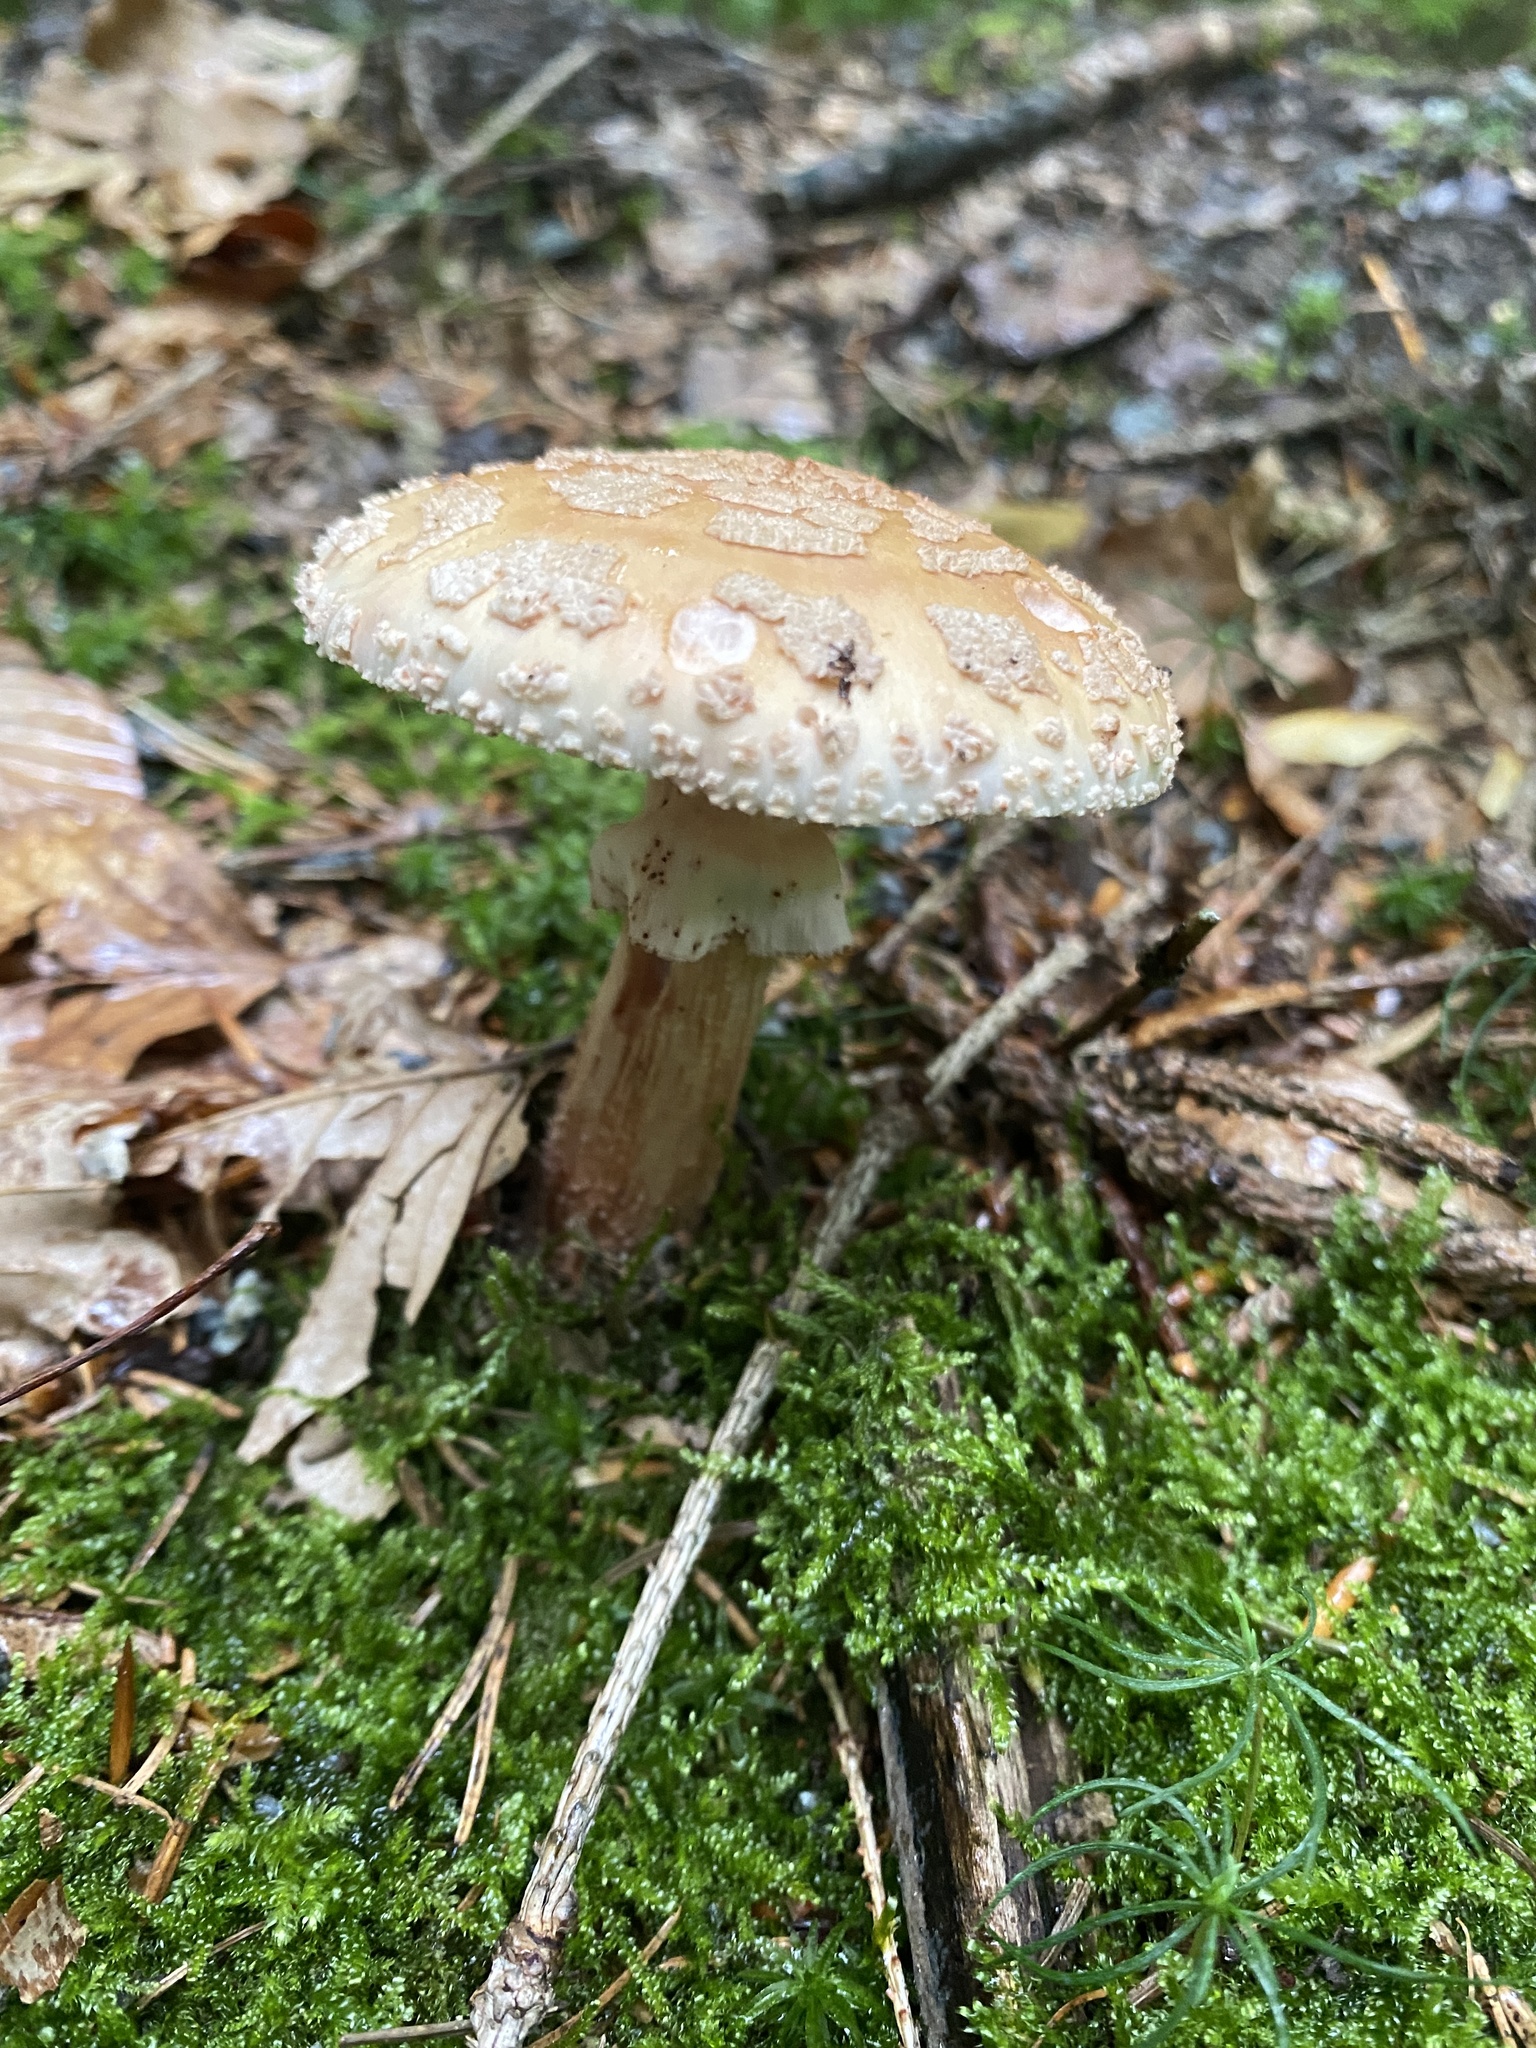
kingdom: Fungi
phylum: Basidiomycota
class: Agaricomycetes
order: Agaricales
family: Amanitaceae
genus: Amanita
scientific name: Amanita rubescens
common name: Blusher
